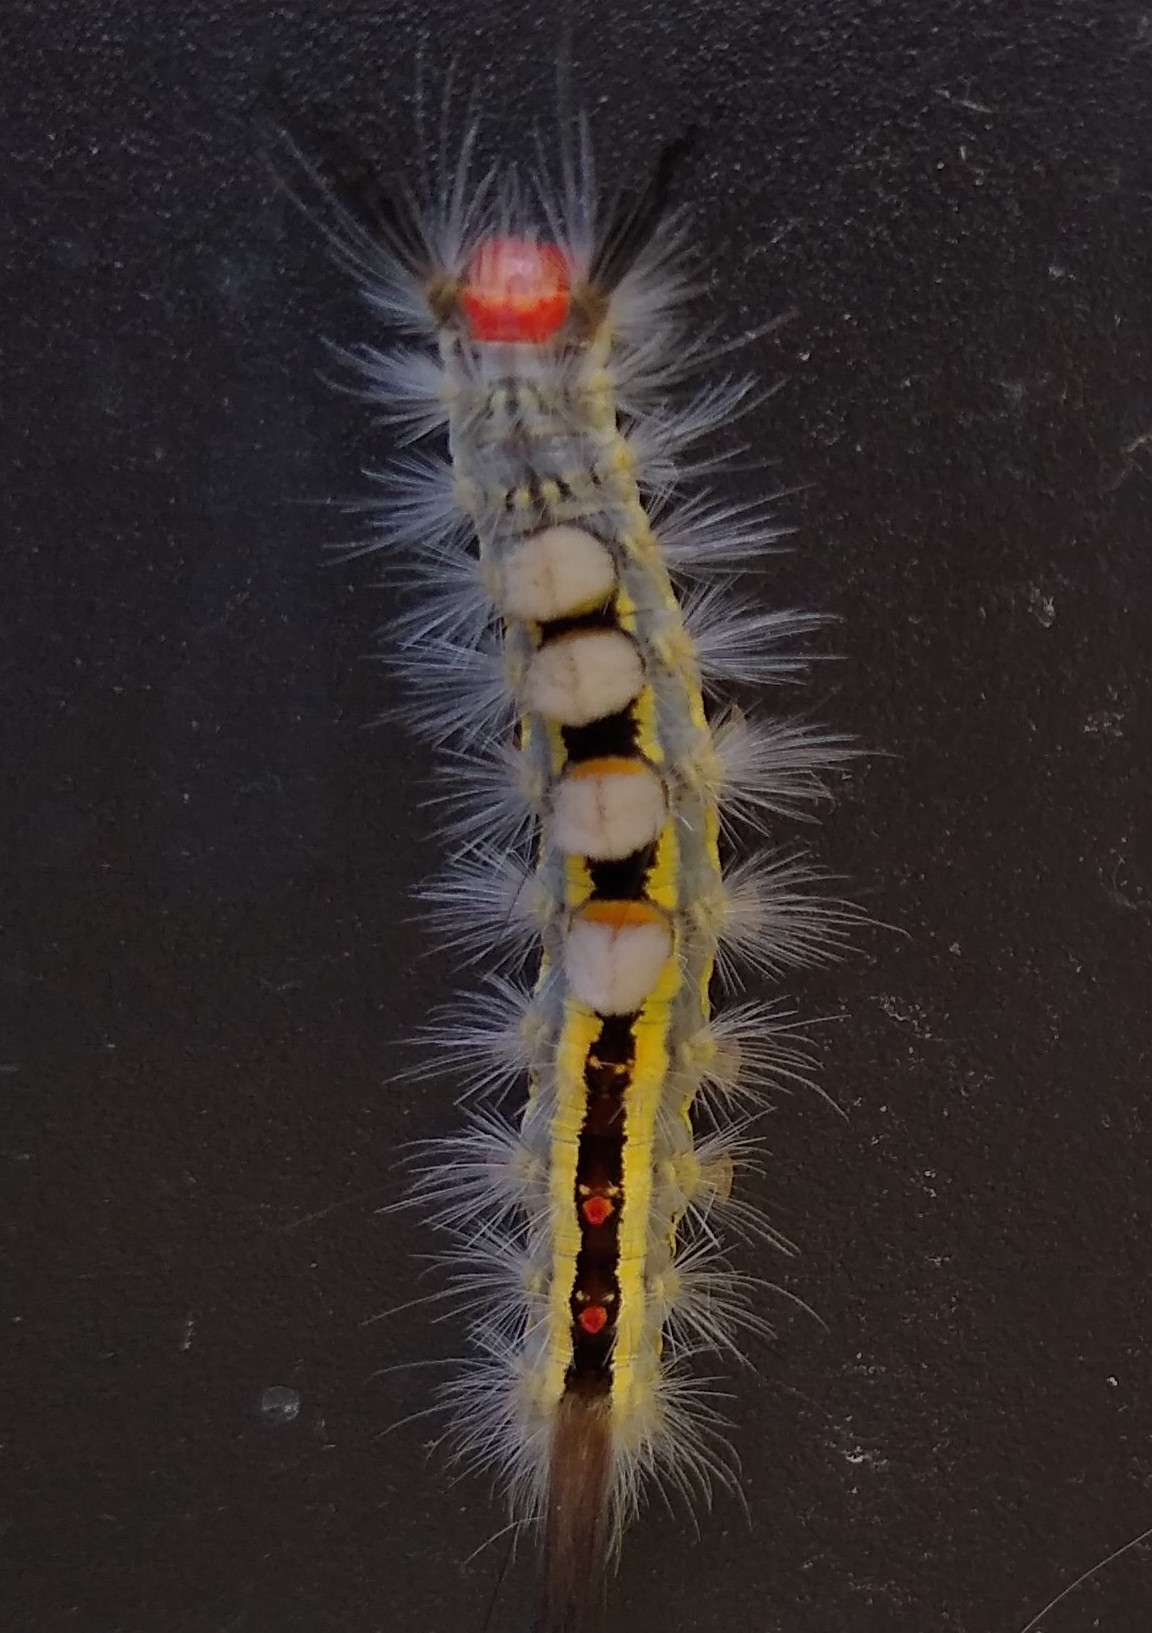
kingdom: Animalia
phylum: Arthropoda
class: Insecta
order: Lepidoptera
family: Erebidae
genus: Orgyia
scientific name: Orgyia leucostigma
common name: White-marked tussock moth
